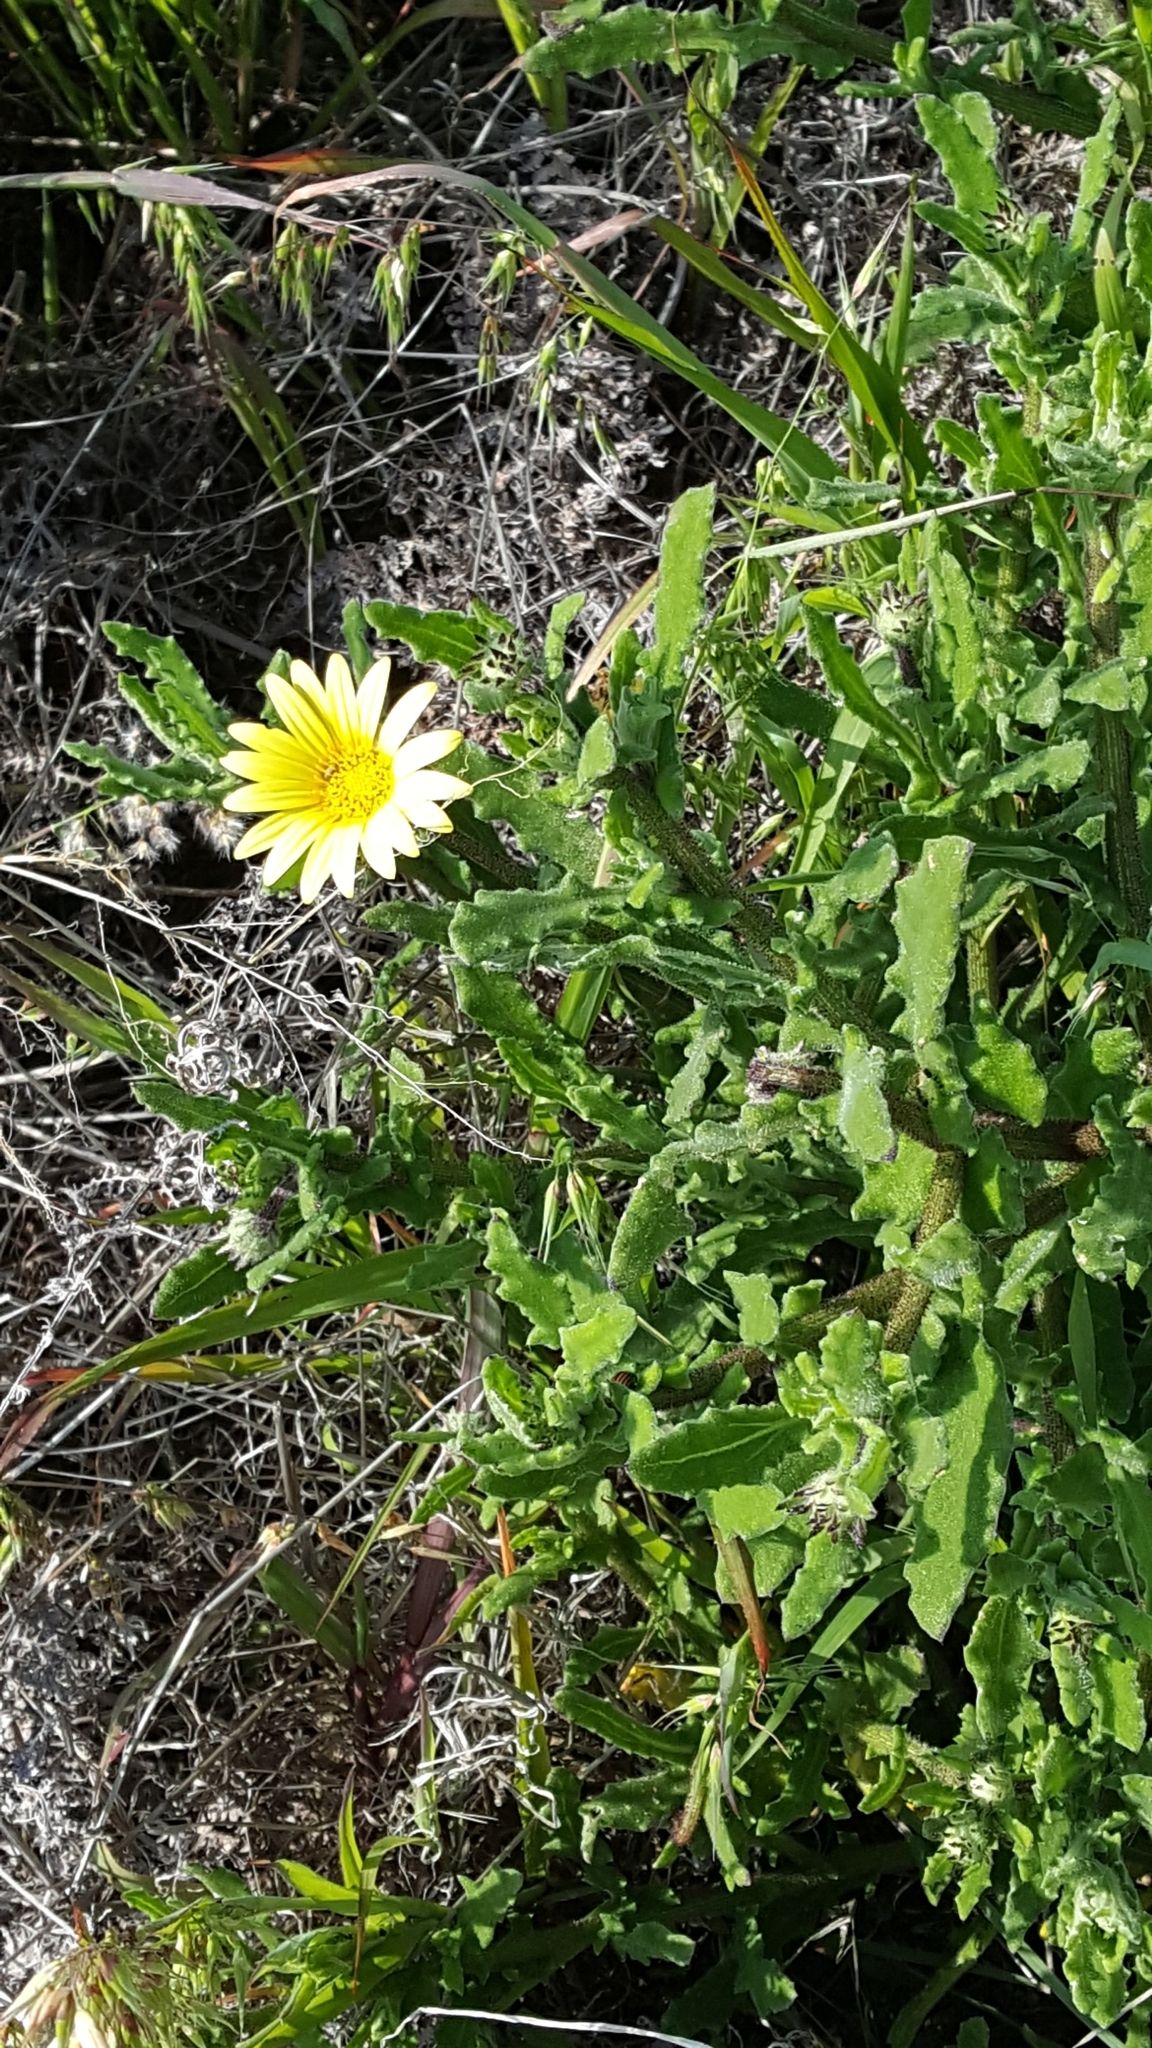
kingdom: Plantae
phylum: Tracheophyta
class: Magnoliopsida
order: Asterales
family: Asteraceae
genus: Arctotis
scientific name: Arctotis scabra
